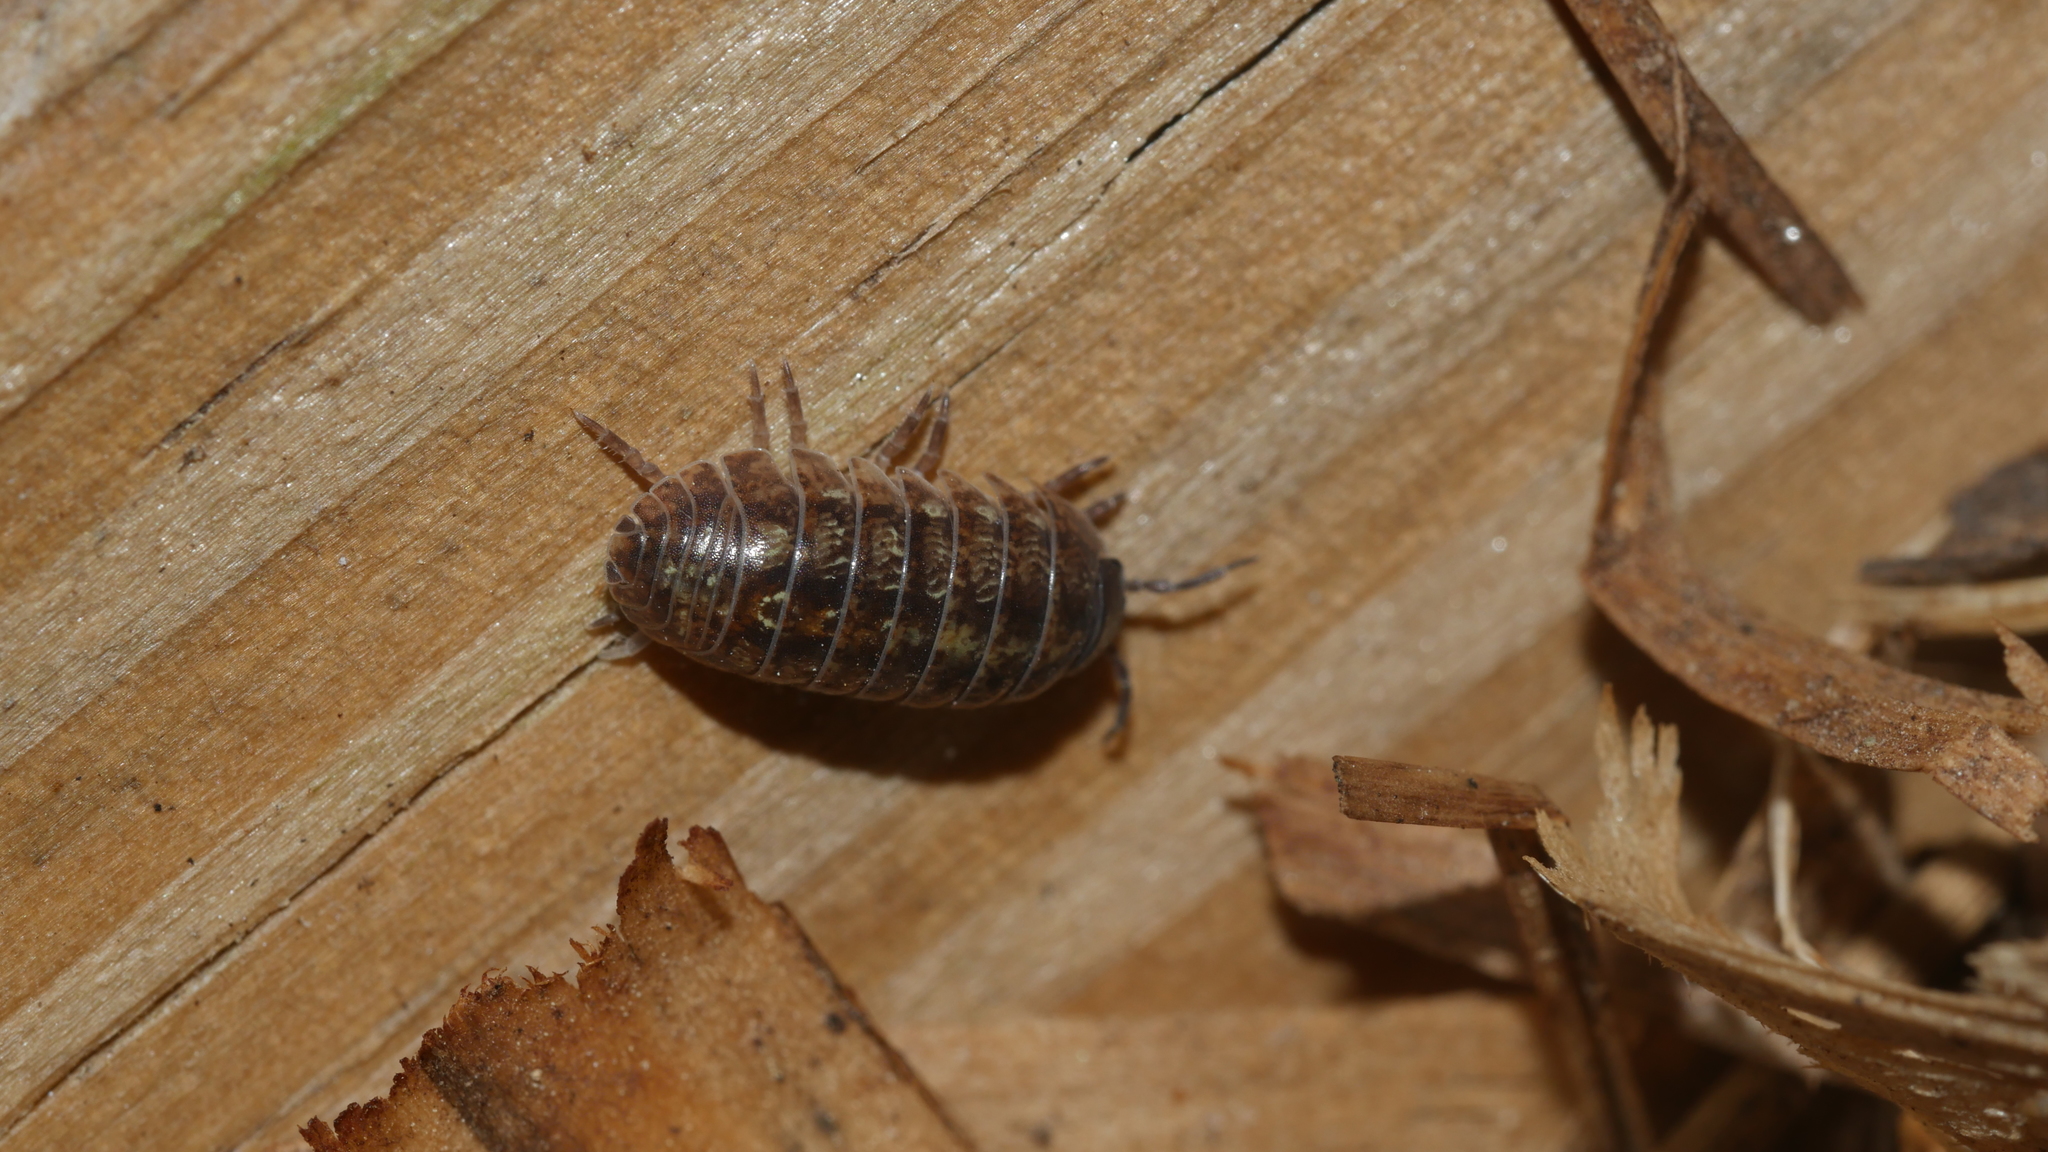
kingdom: Animalia
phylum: Arthropoda
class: Malacostraca
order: Isopoda
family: Armadillidiidae
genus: Armadillidium
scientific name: Armadillidium vulgare
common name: Common pill woodlouse
